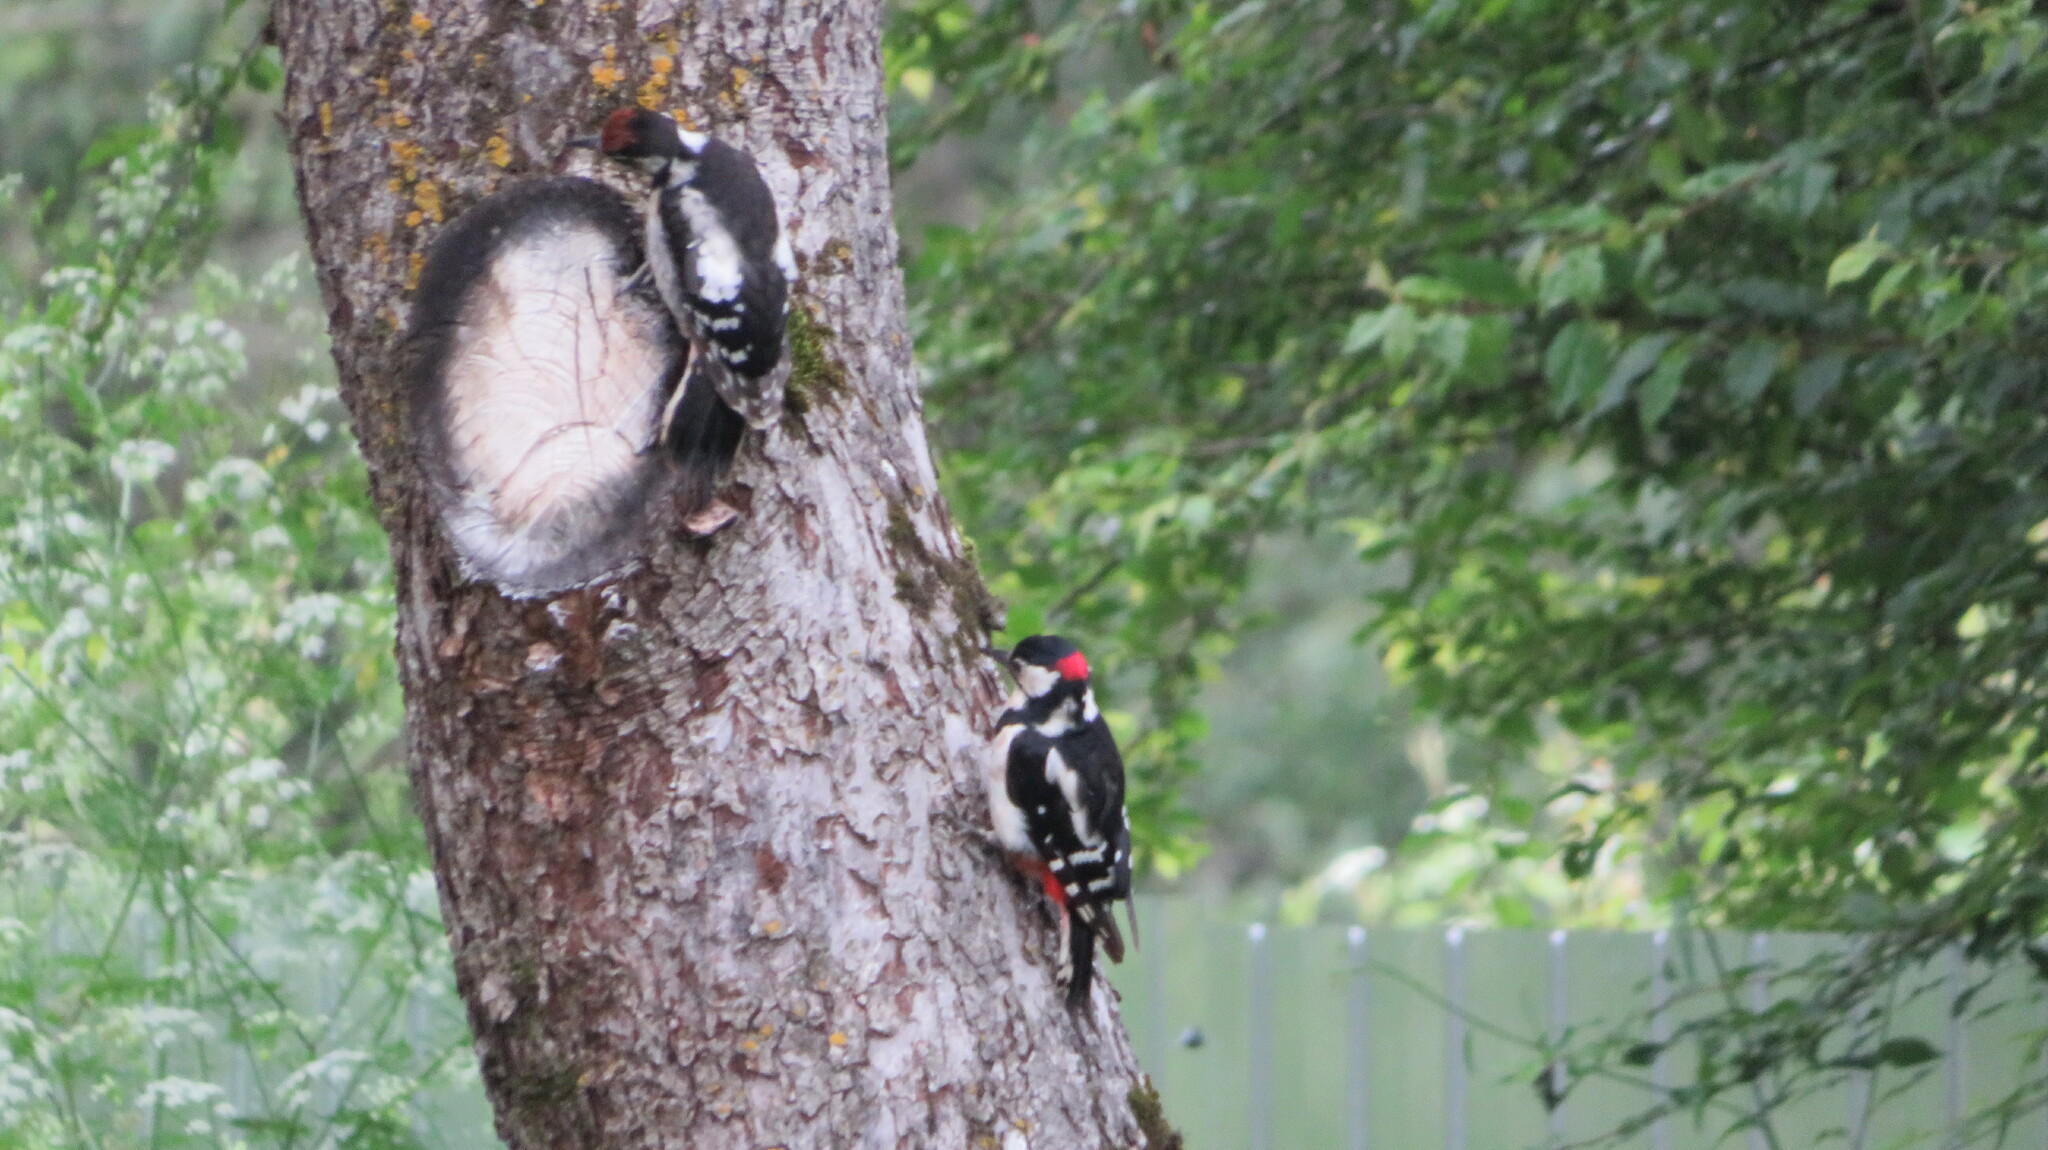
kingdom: Animalia
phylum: Chordata
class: Aves
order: Piciformes
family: Picidae
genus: Dendrocopos
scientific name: Dendrocopos major
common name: Great spotted woodpecker
